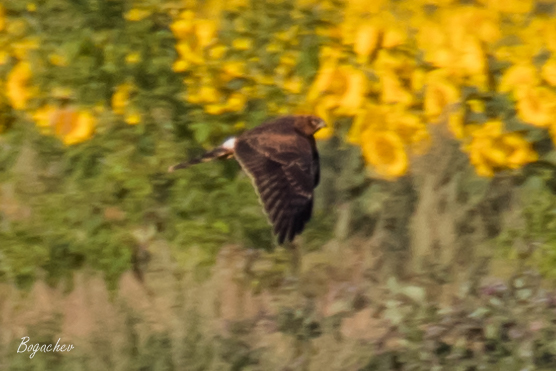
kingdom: Animalia
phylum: Chordata
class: Aves
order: Accipitriformes
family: Accipitridae
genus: Circus
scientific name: Circus pygargus
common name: Montagu's harrier
